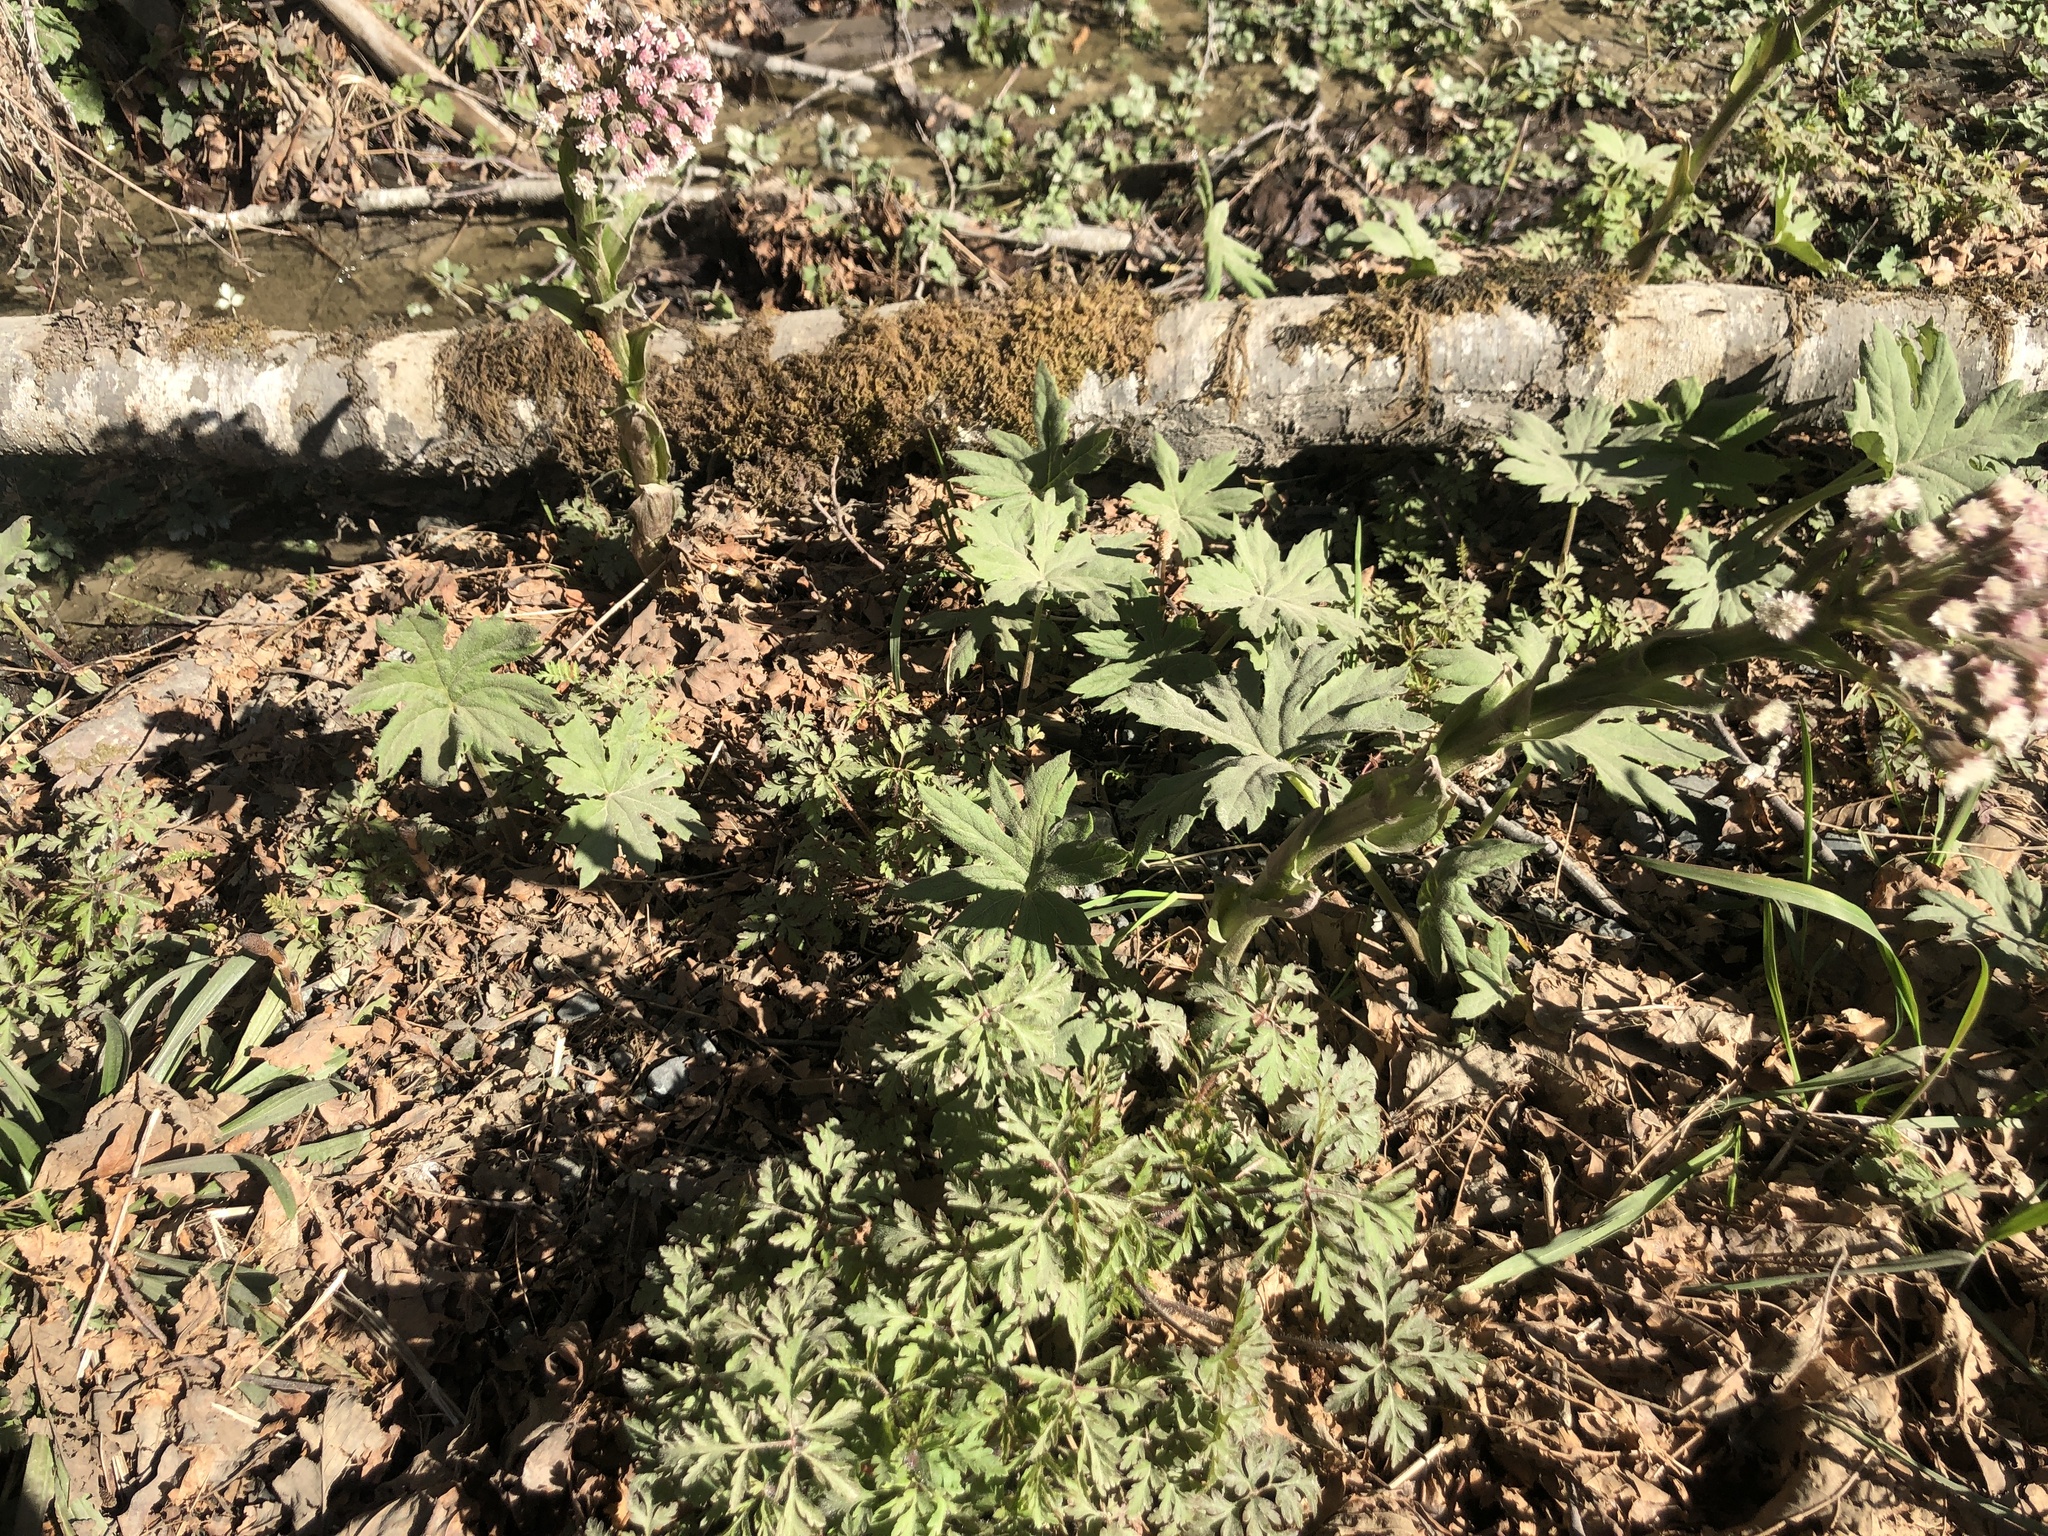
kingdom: Plantae
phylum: Tracheophyta
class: Magnoliopsida
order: Asterales
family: Asteraceae
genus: Petasites
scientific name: Petasites frigidus
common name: Arctic butterbur
